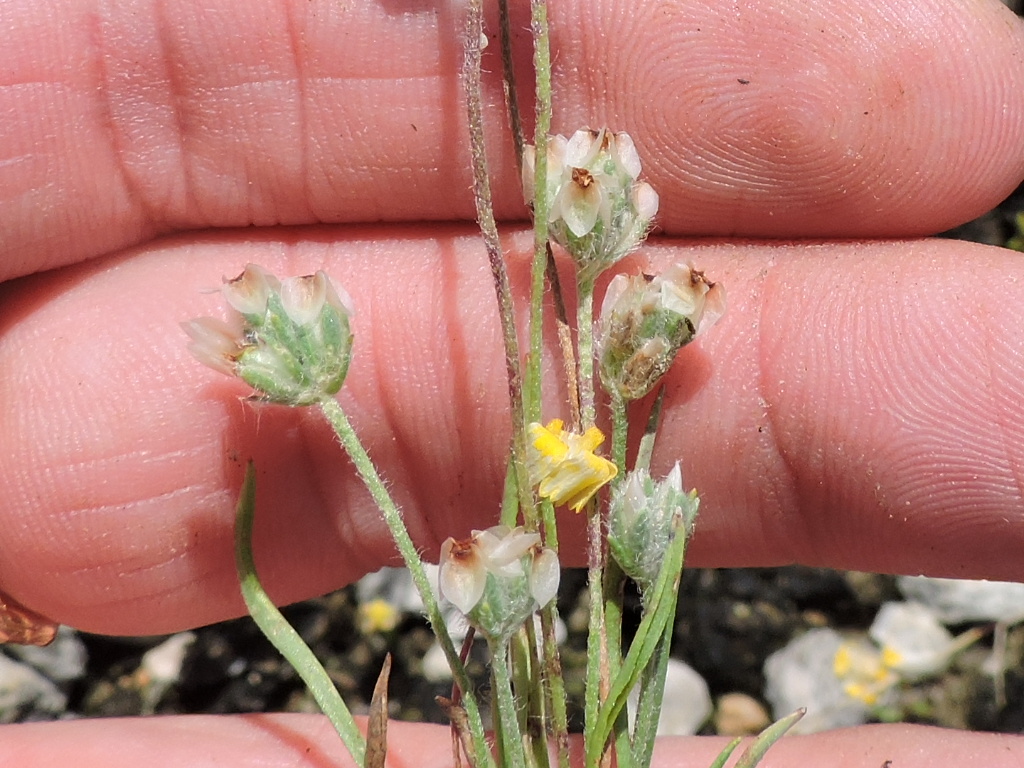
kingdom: Plantae
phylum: Tracheophyta
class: Magnoliopsida
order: Lamiales
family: Plantaginaceae
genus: Plantago
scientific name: Plantago helleri
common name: Heller's plantain
